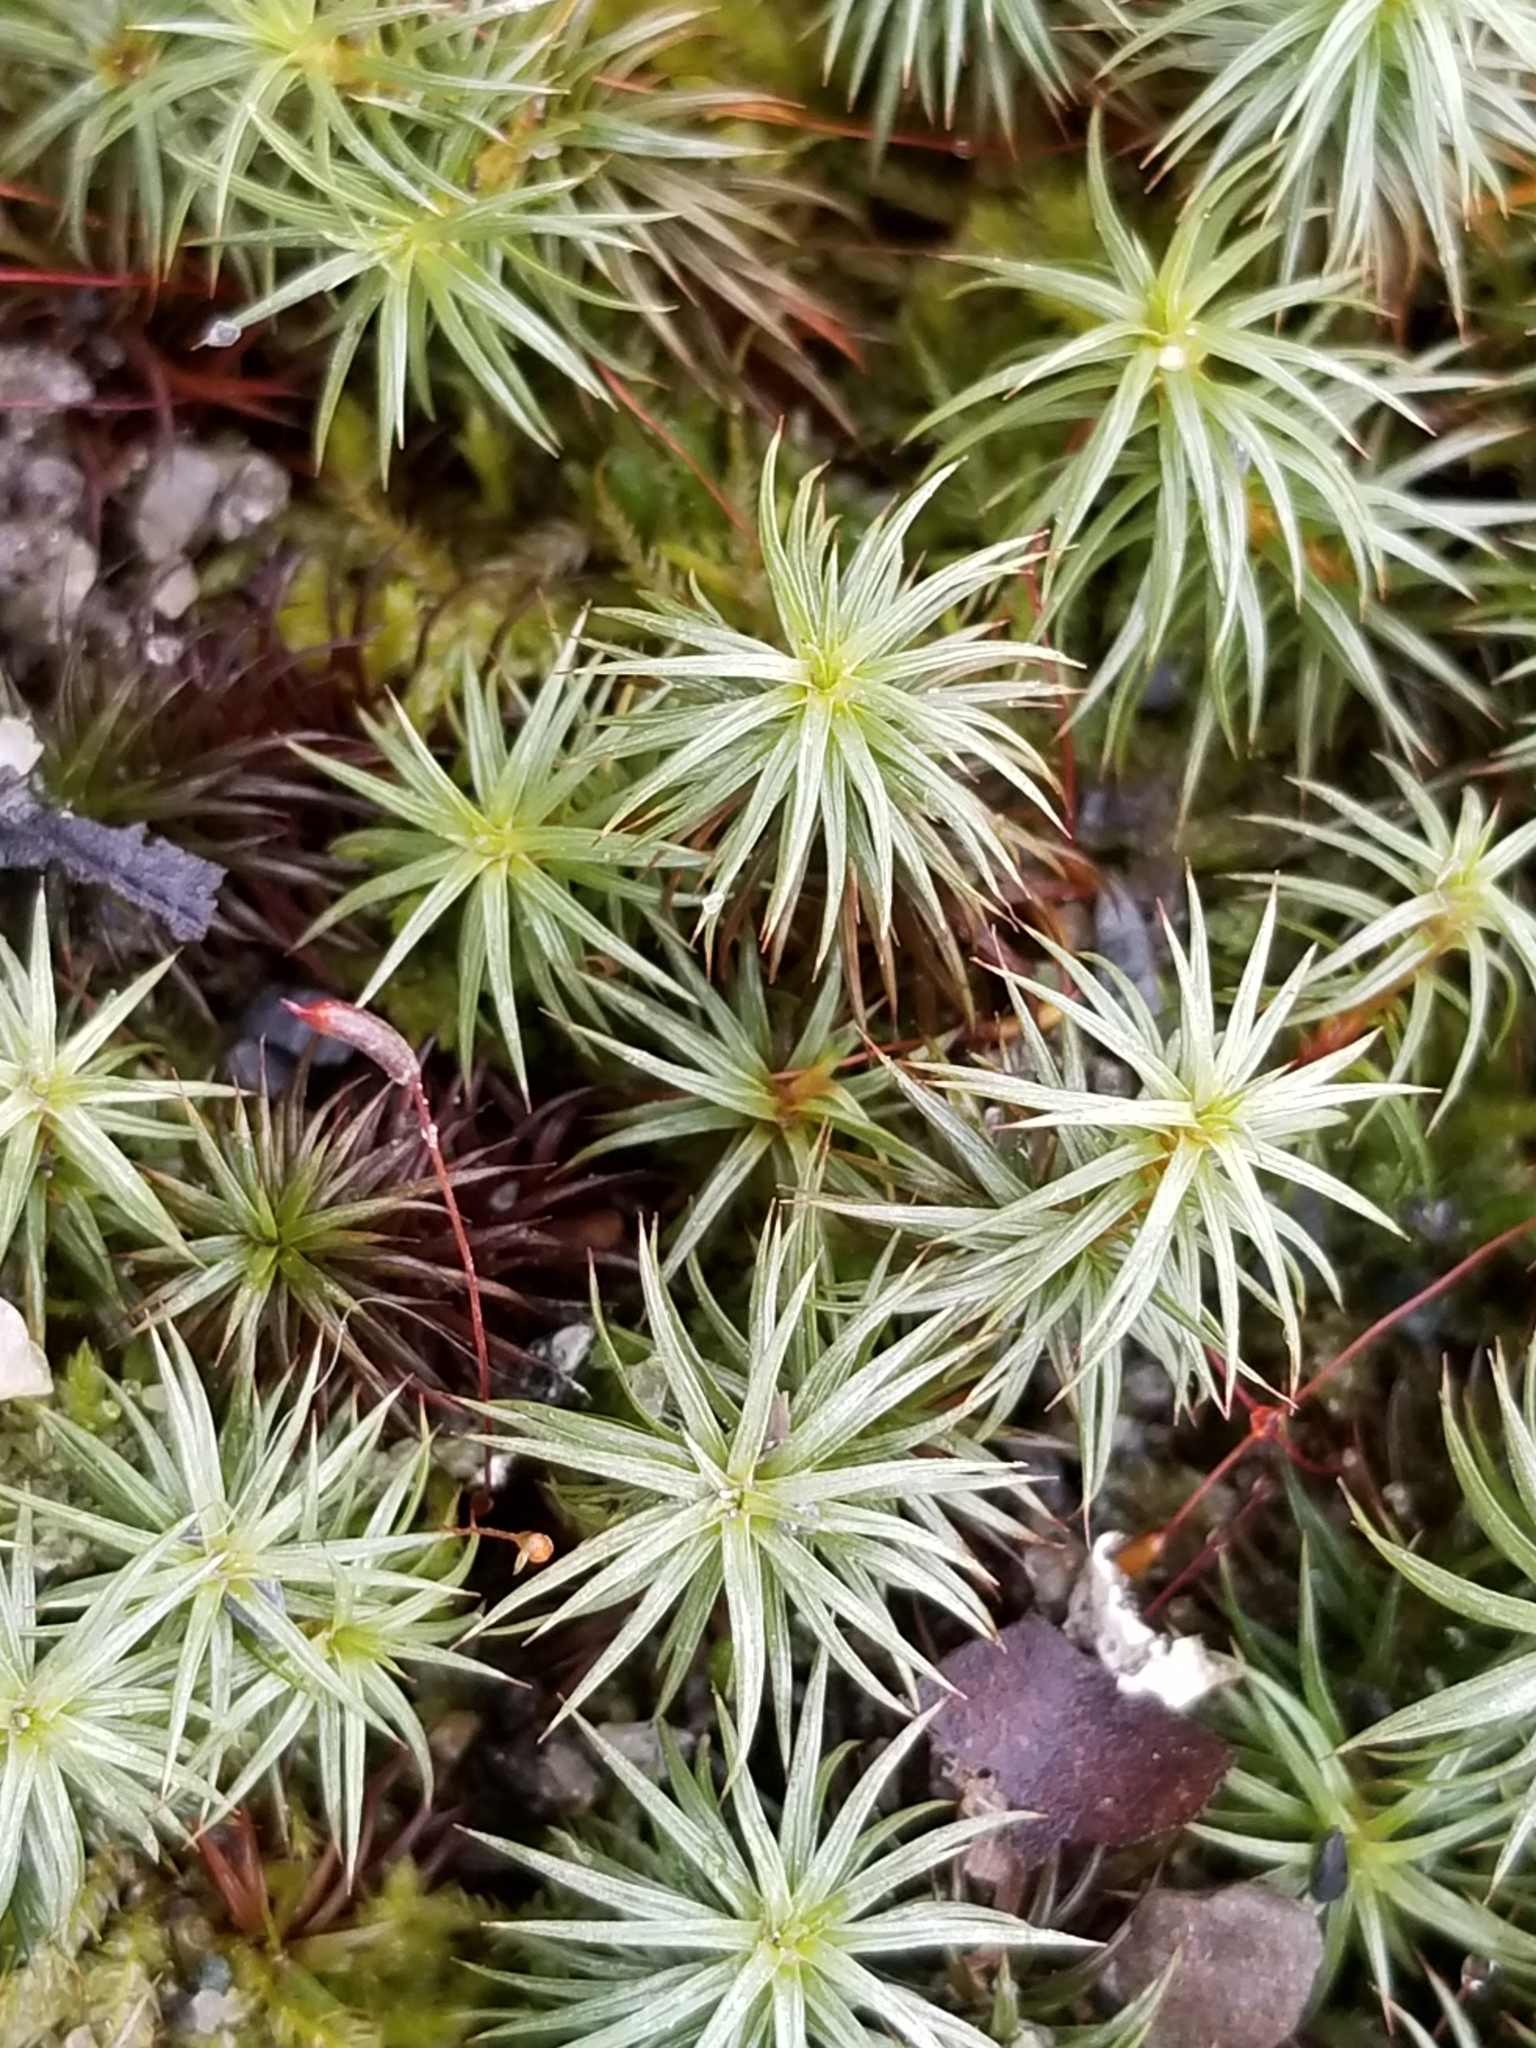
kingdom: Plantae
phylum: Bryophyta
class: Polytrichopsida
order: Polytrichales
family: Polytrichaceae
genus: Polytrichum
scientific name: Polytrichum juniperinum
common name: Juniper haircap moss
